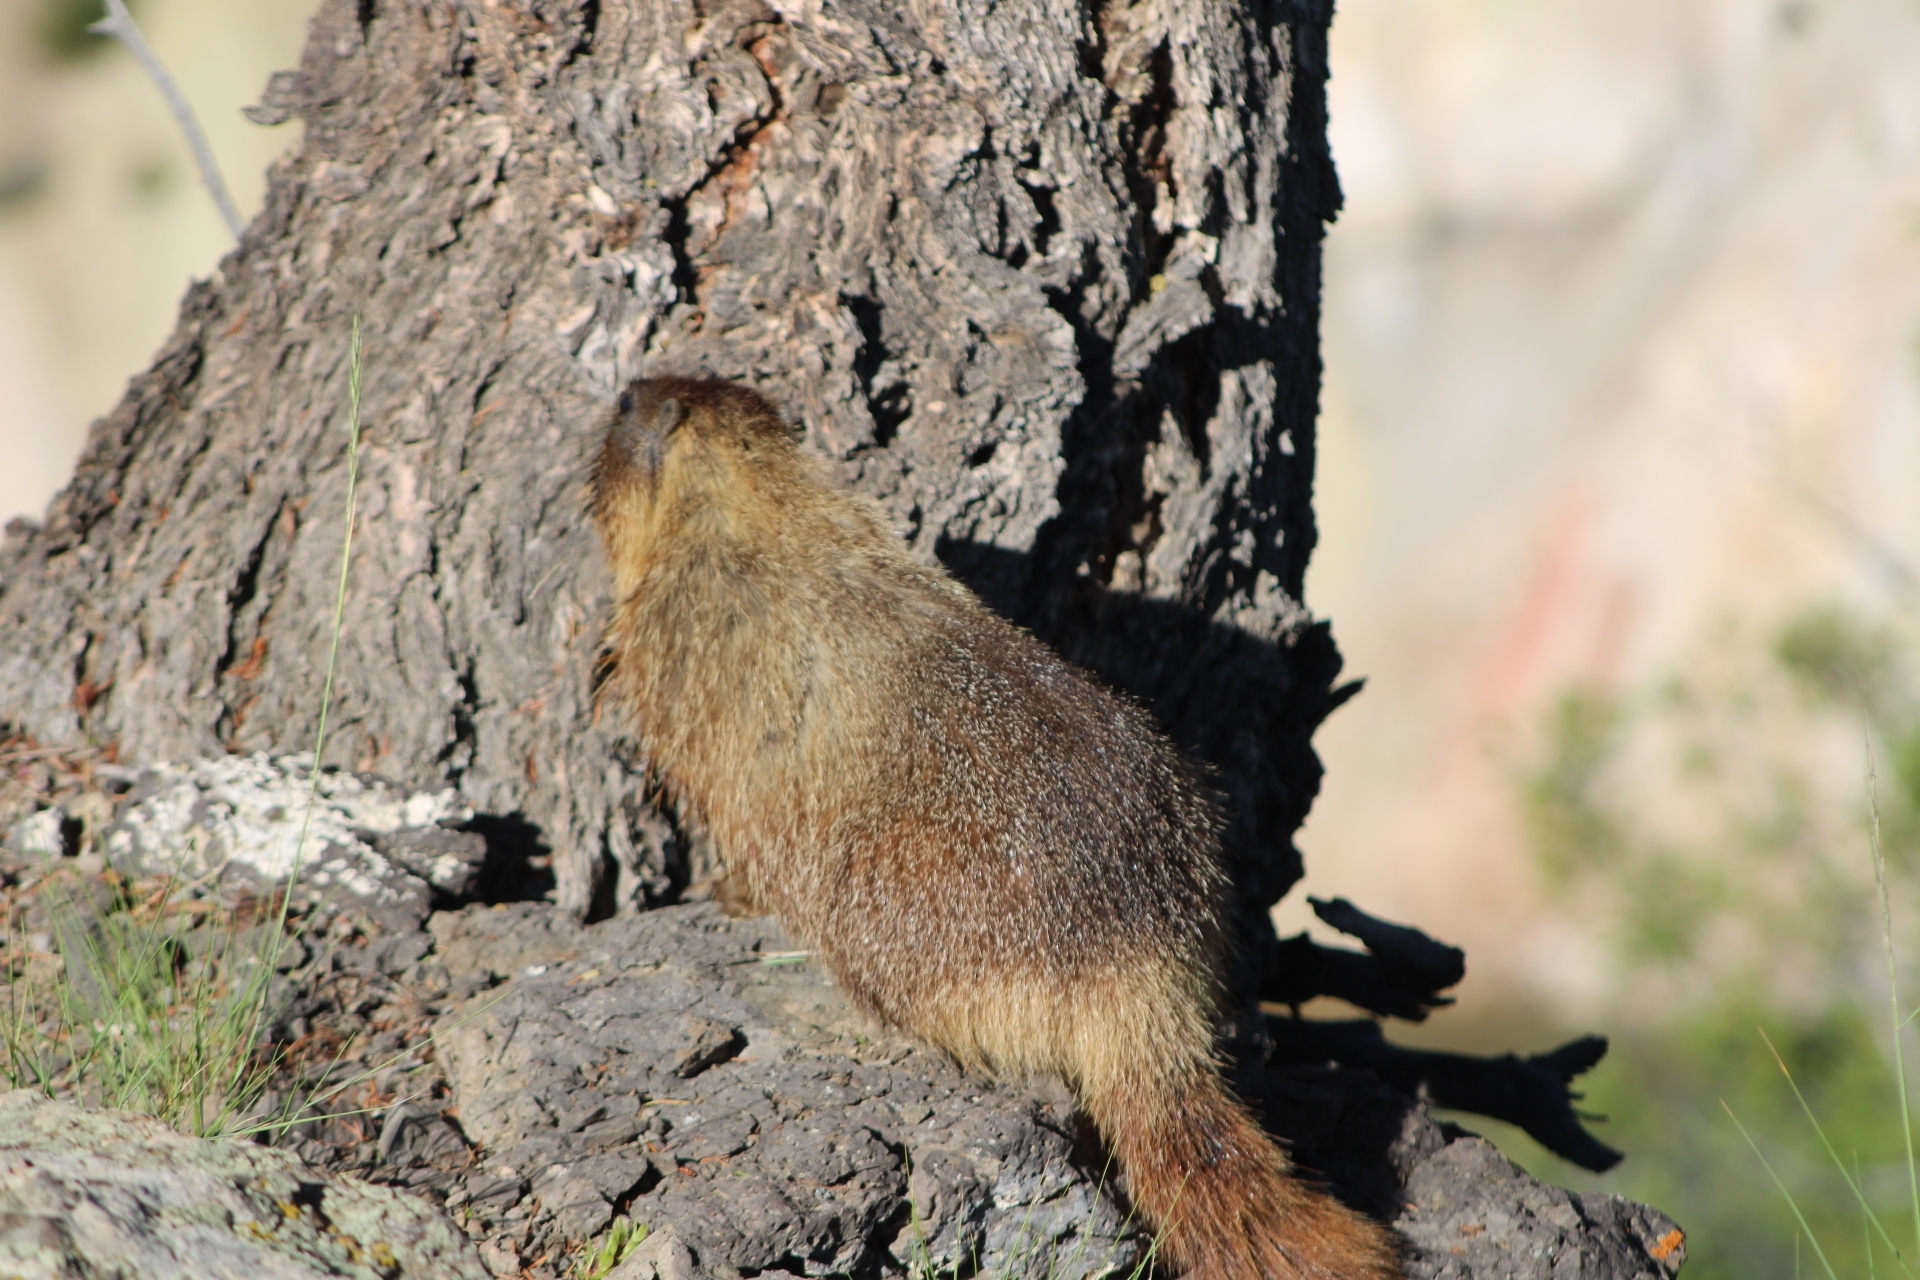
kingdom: Animalia
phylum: Chordata
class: Mammalia
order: Rodentia
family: Sciuridae
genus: Marmota
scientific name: Marmota flaviventris
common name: Yellow-bellied marmot
